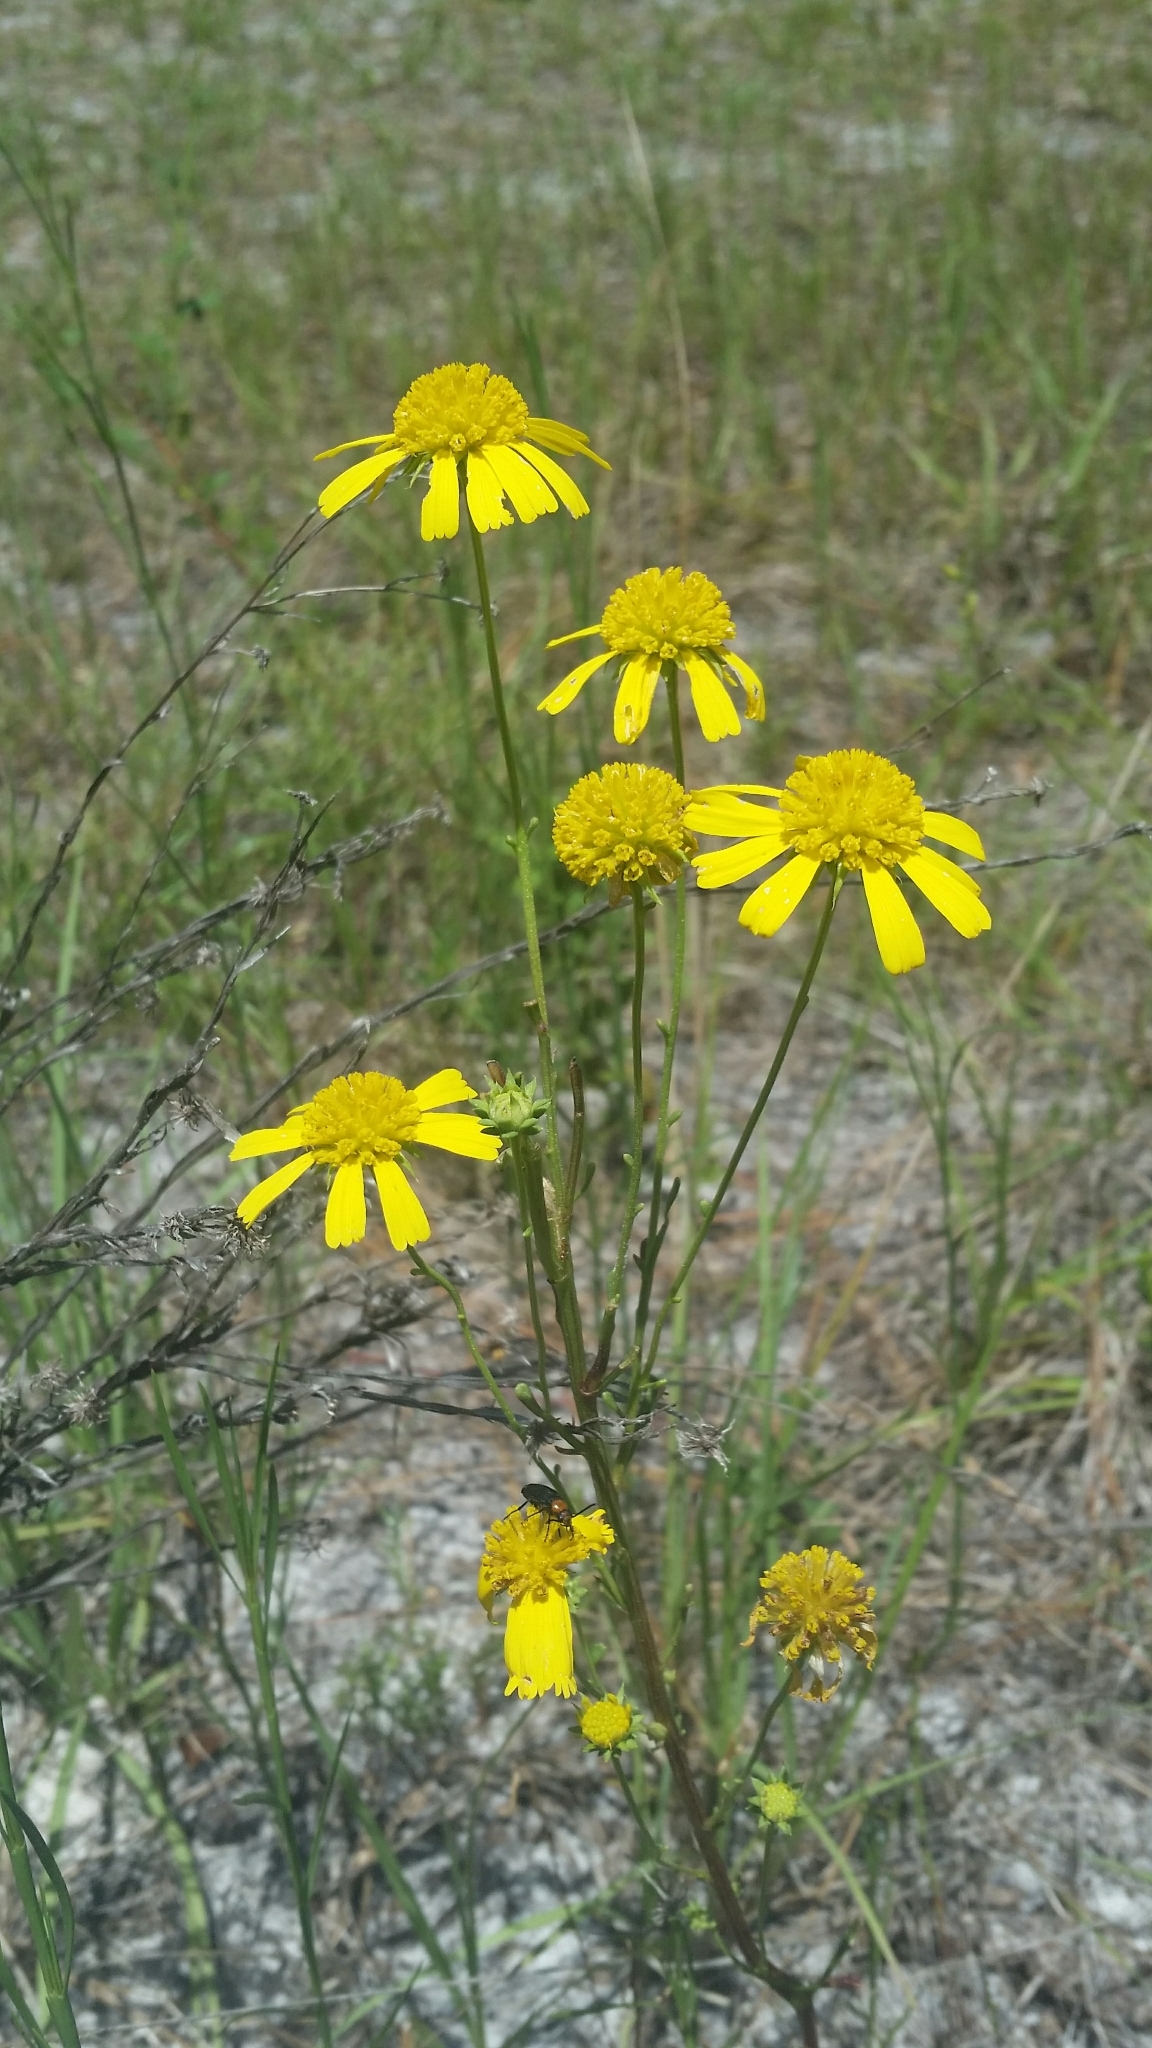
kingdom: Plantae
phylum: Tracheophyta
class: Magnoliopsida
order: Asterales
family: Asteraceae
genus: Balduina
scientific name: Balduina angustifolia
